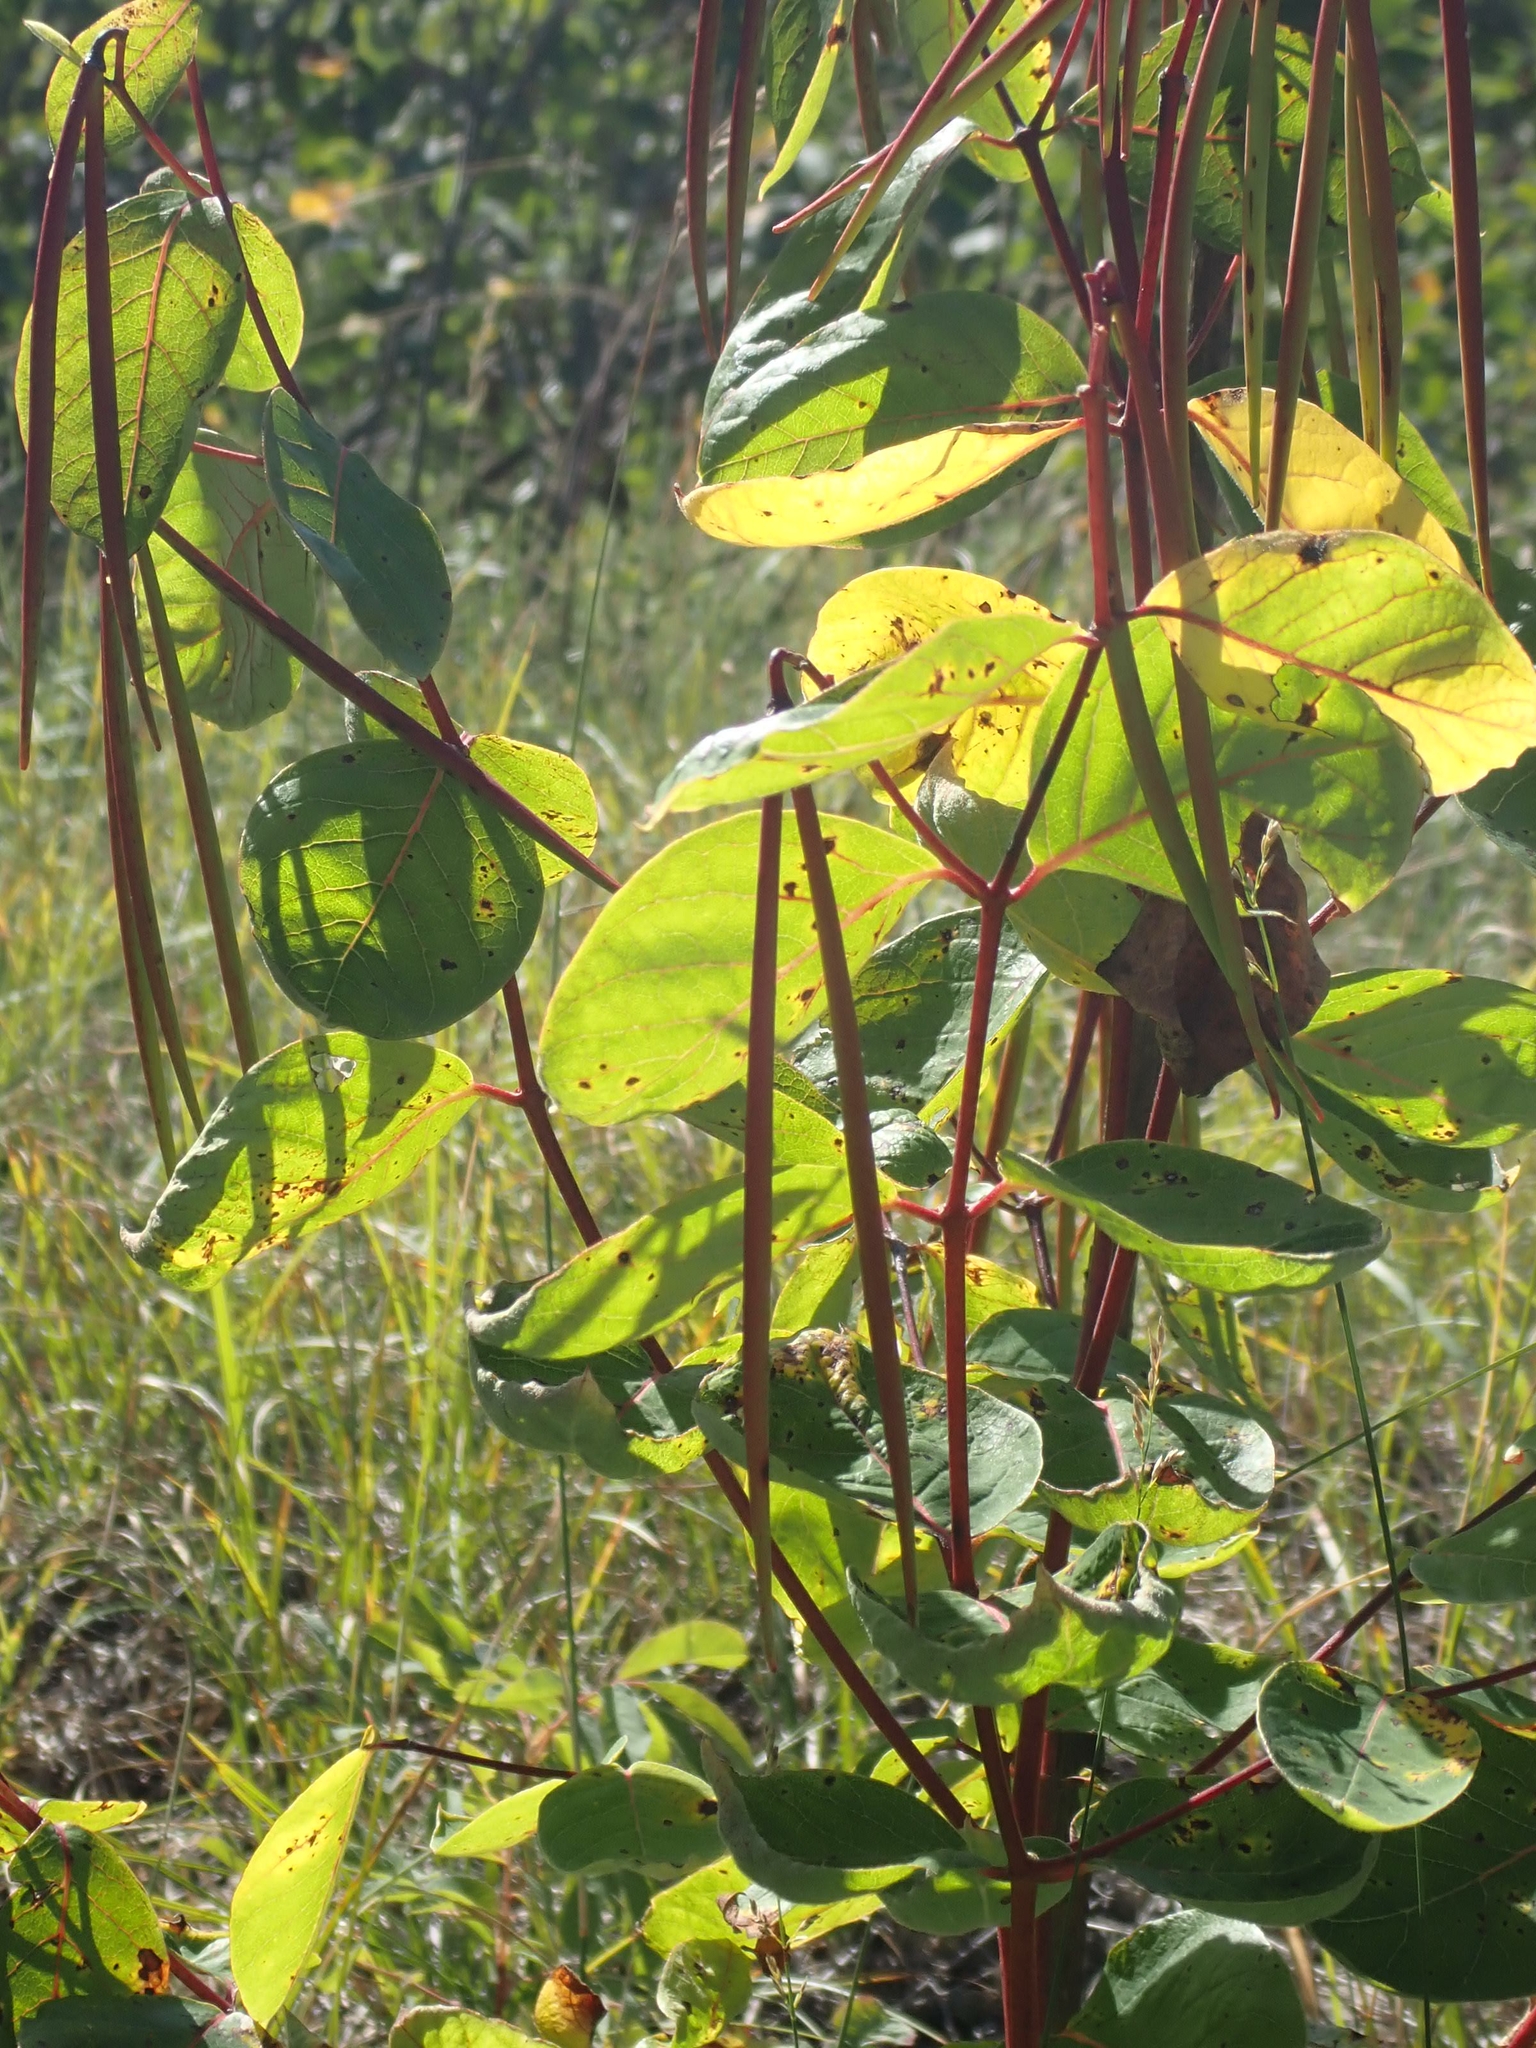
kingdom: Plantae
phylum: Tracheophyta
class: Magnoliopsida
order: Gentianales
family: Apocynaceae
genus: Apocynum
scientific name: Apocynum cannabinum
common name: Hemp dogbane
